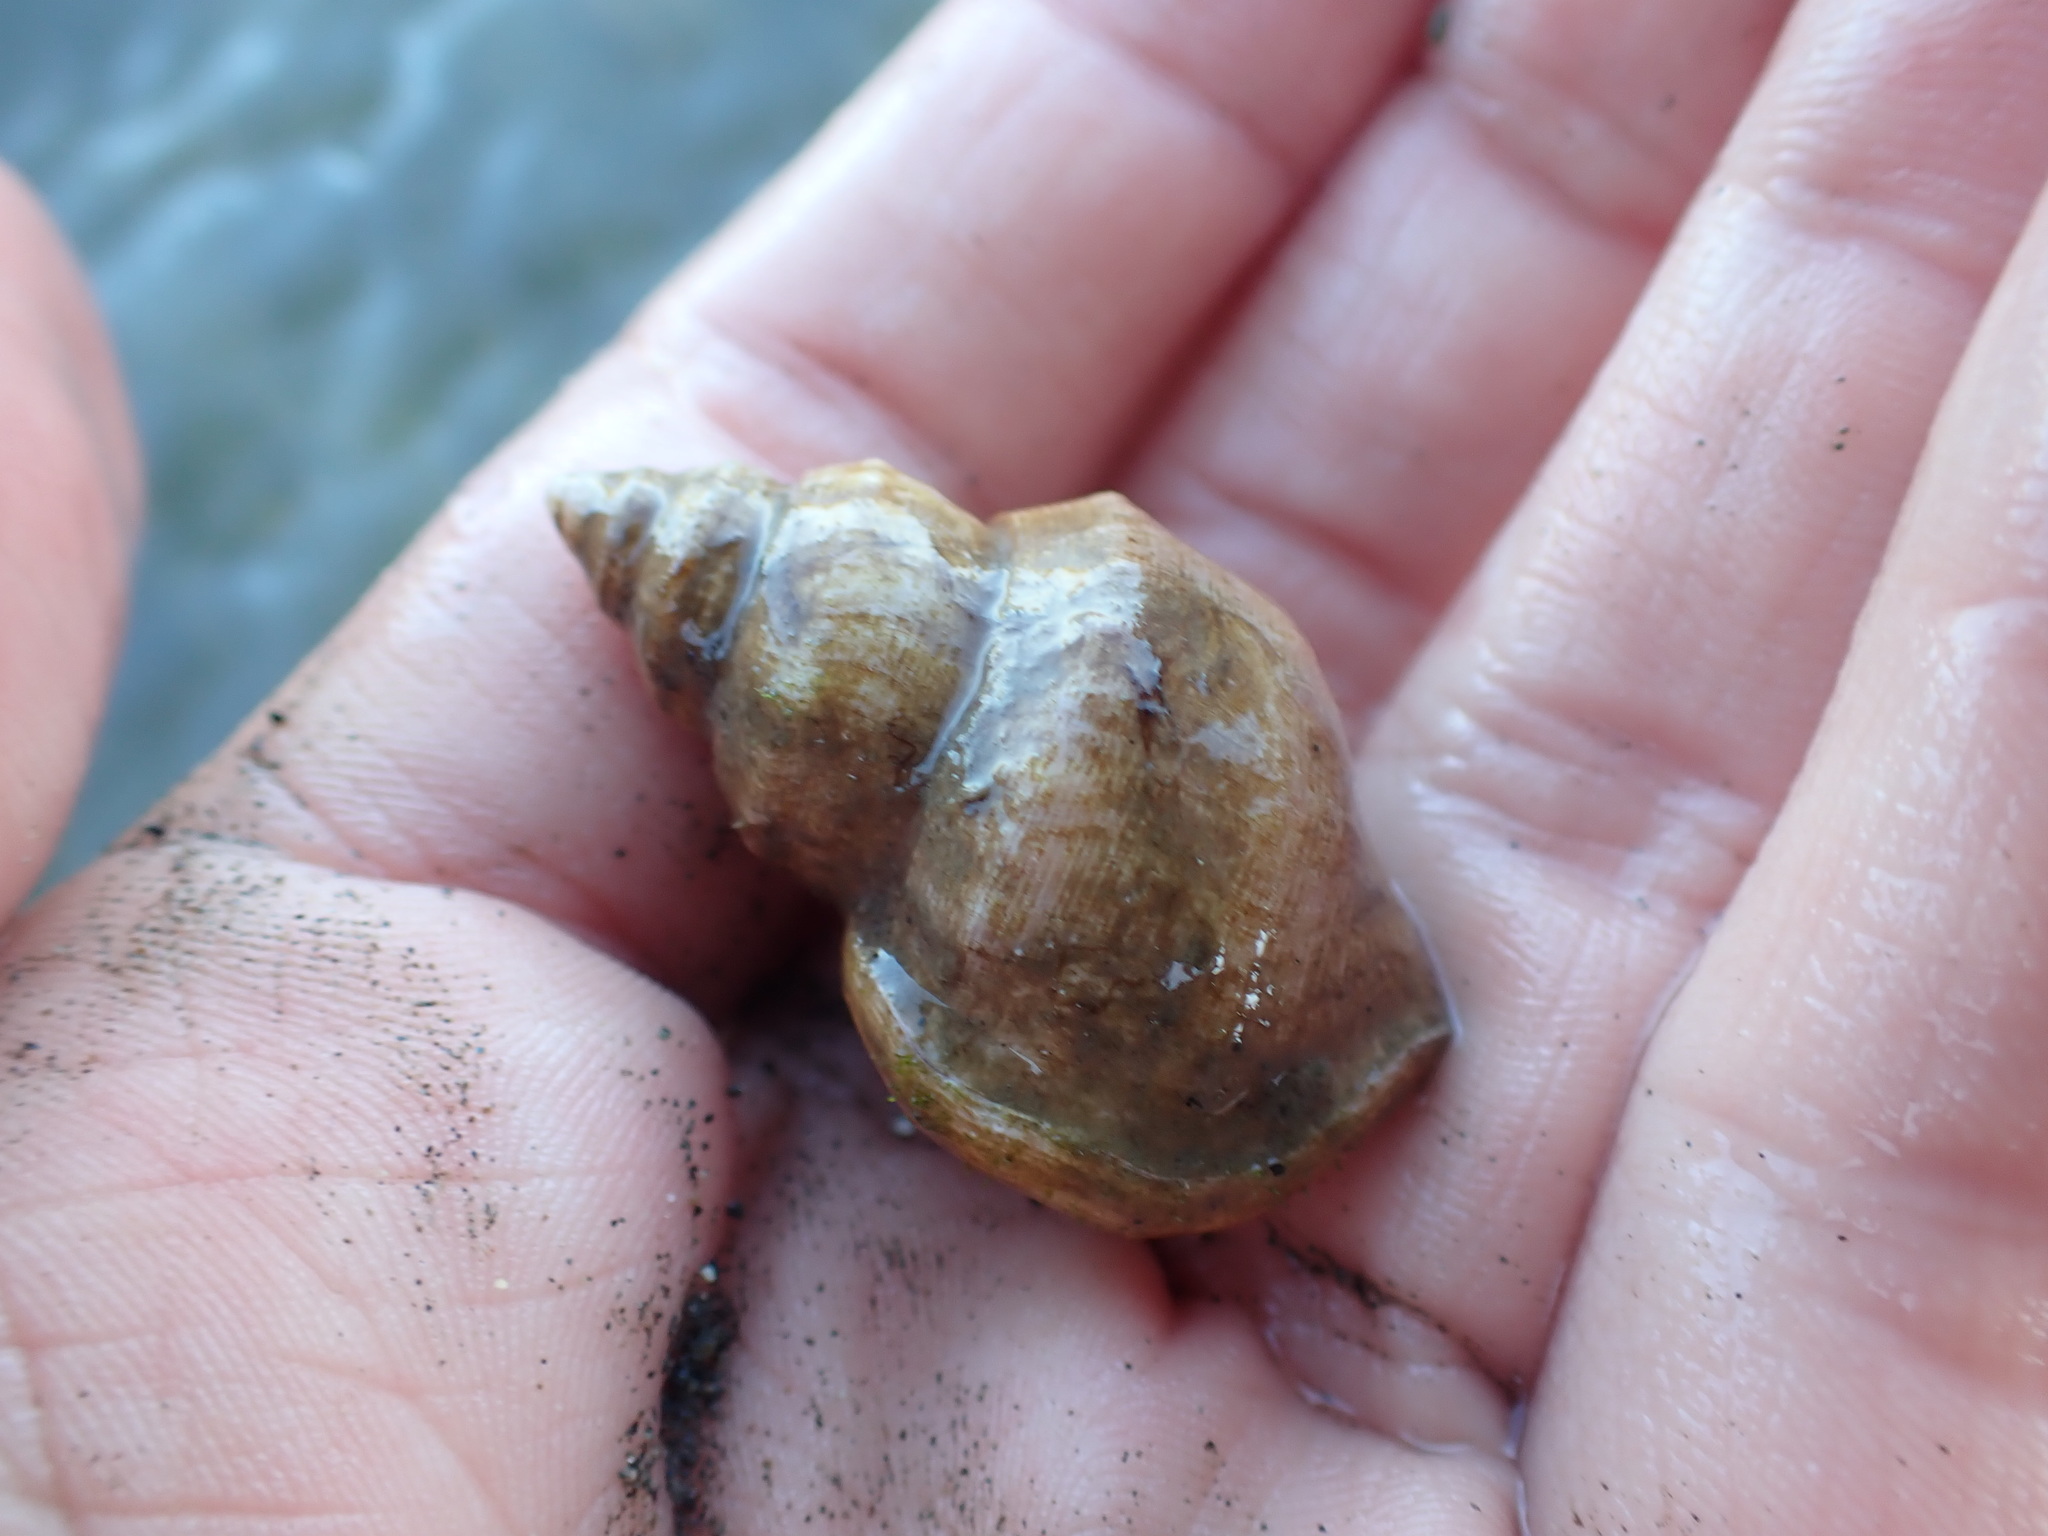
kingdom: Animalia
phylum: Mollusca
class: Gastropoda
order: Littorinimorpha
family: Struthiolariidae
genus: Pelicaria
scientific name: Pelicaria vermis
